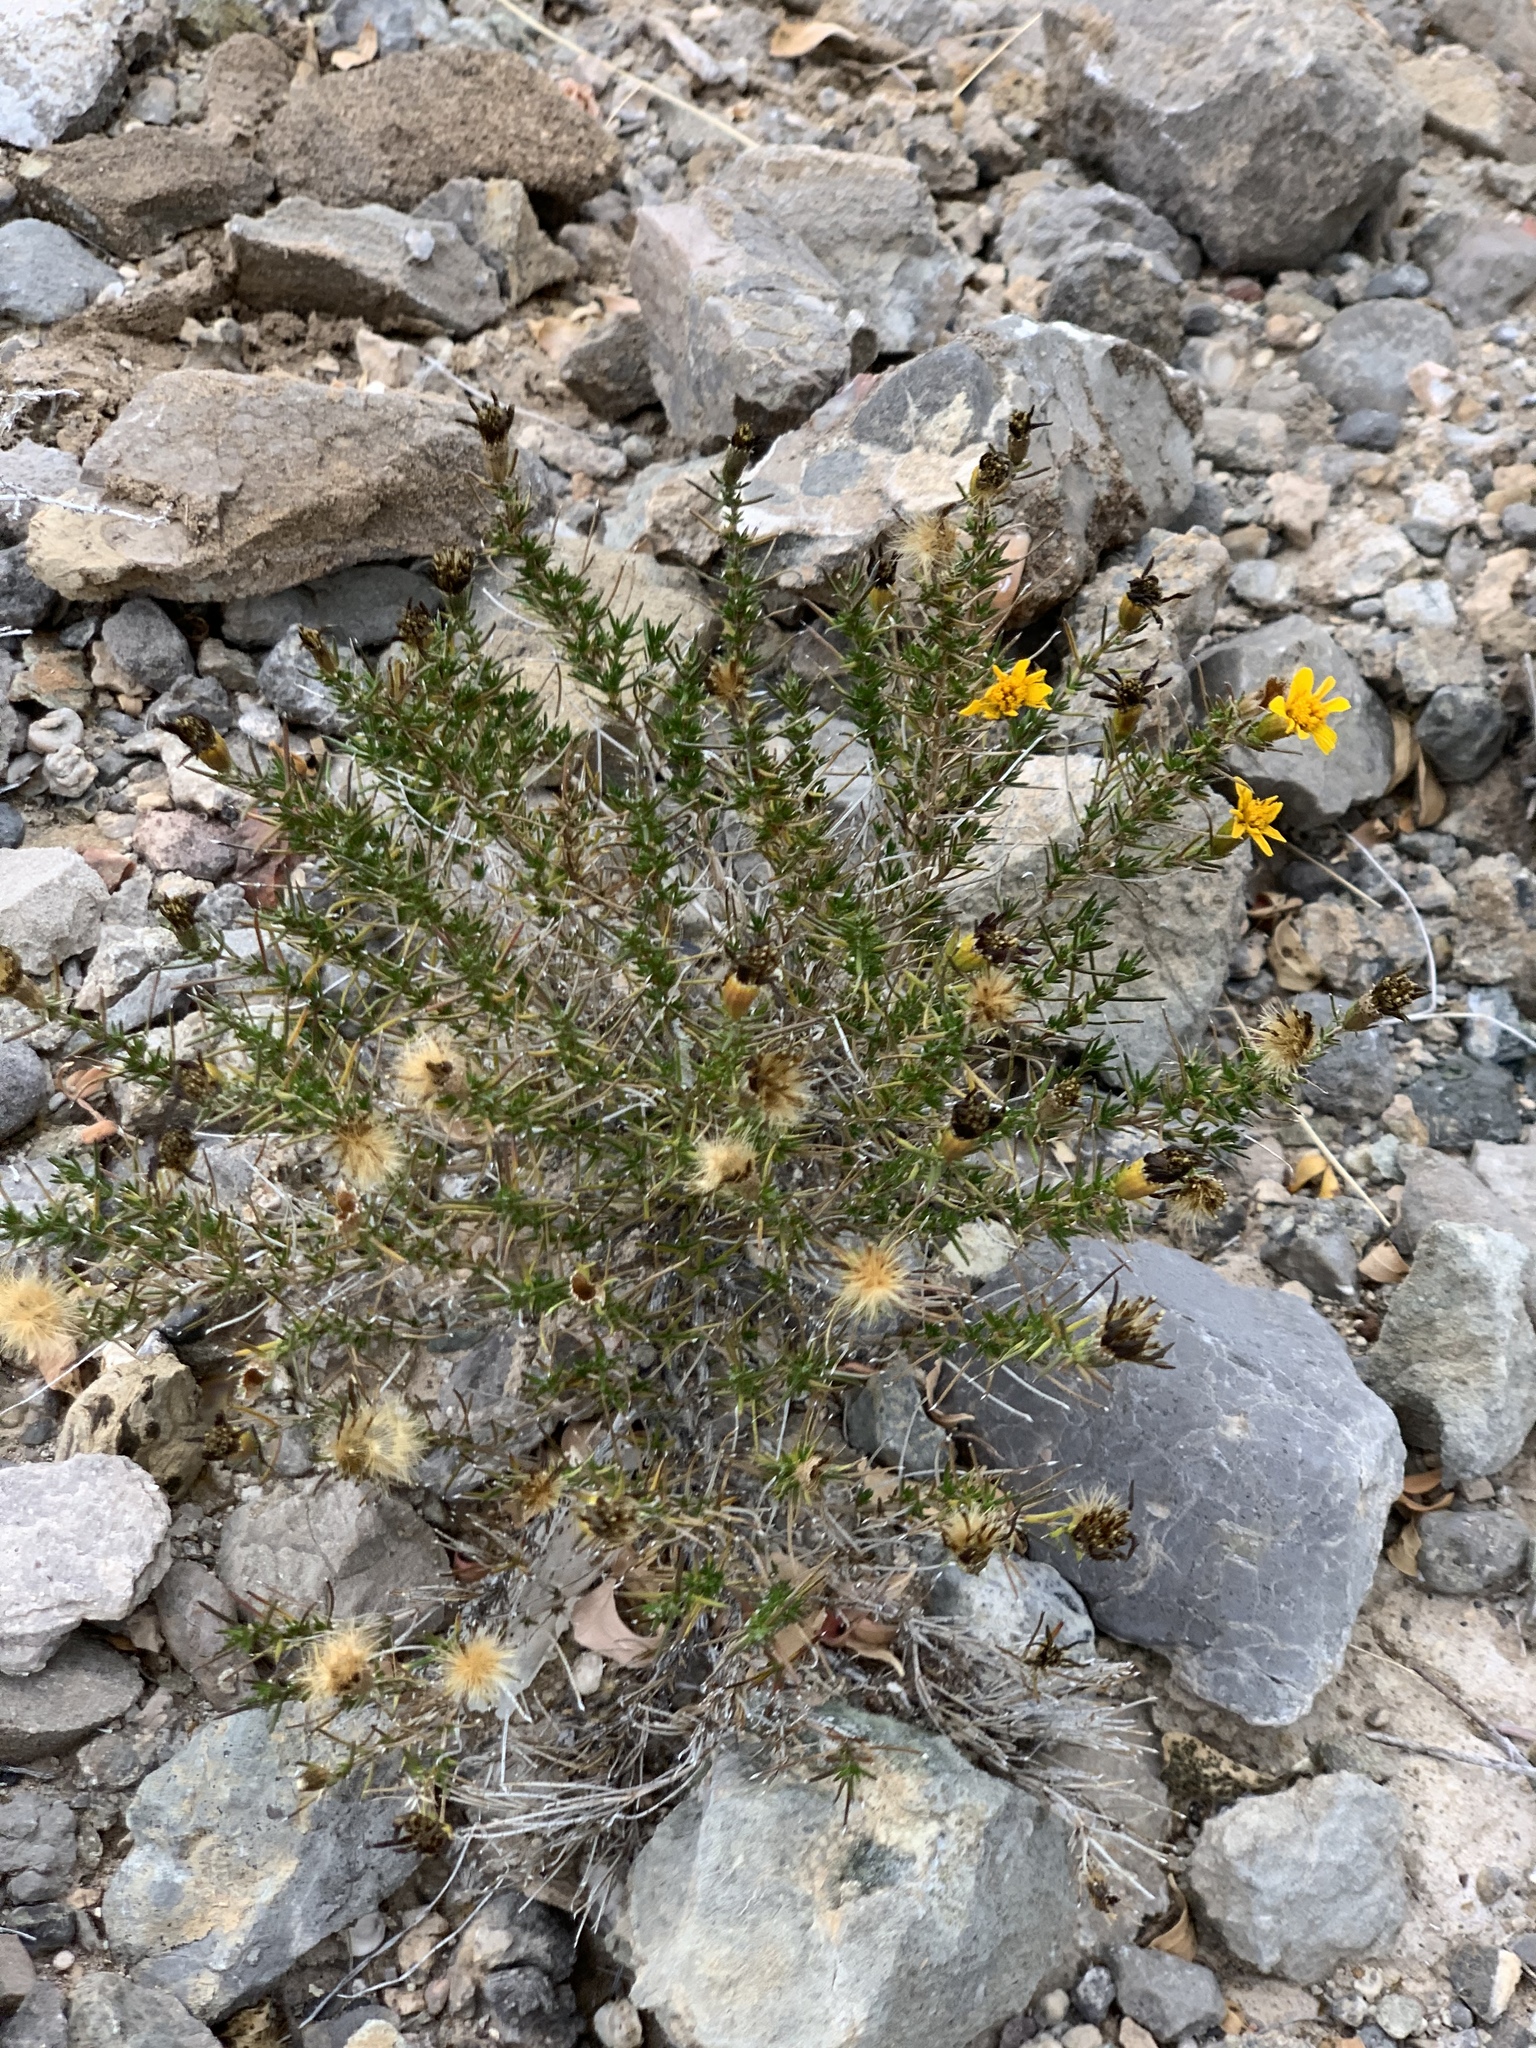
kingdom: Plantae
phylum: Tracheophyta
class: Magnoliopsida
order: Asterales
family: Asteraceae
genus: Thymophylla
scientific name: Thymophylla acerosa
